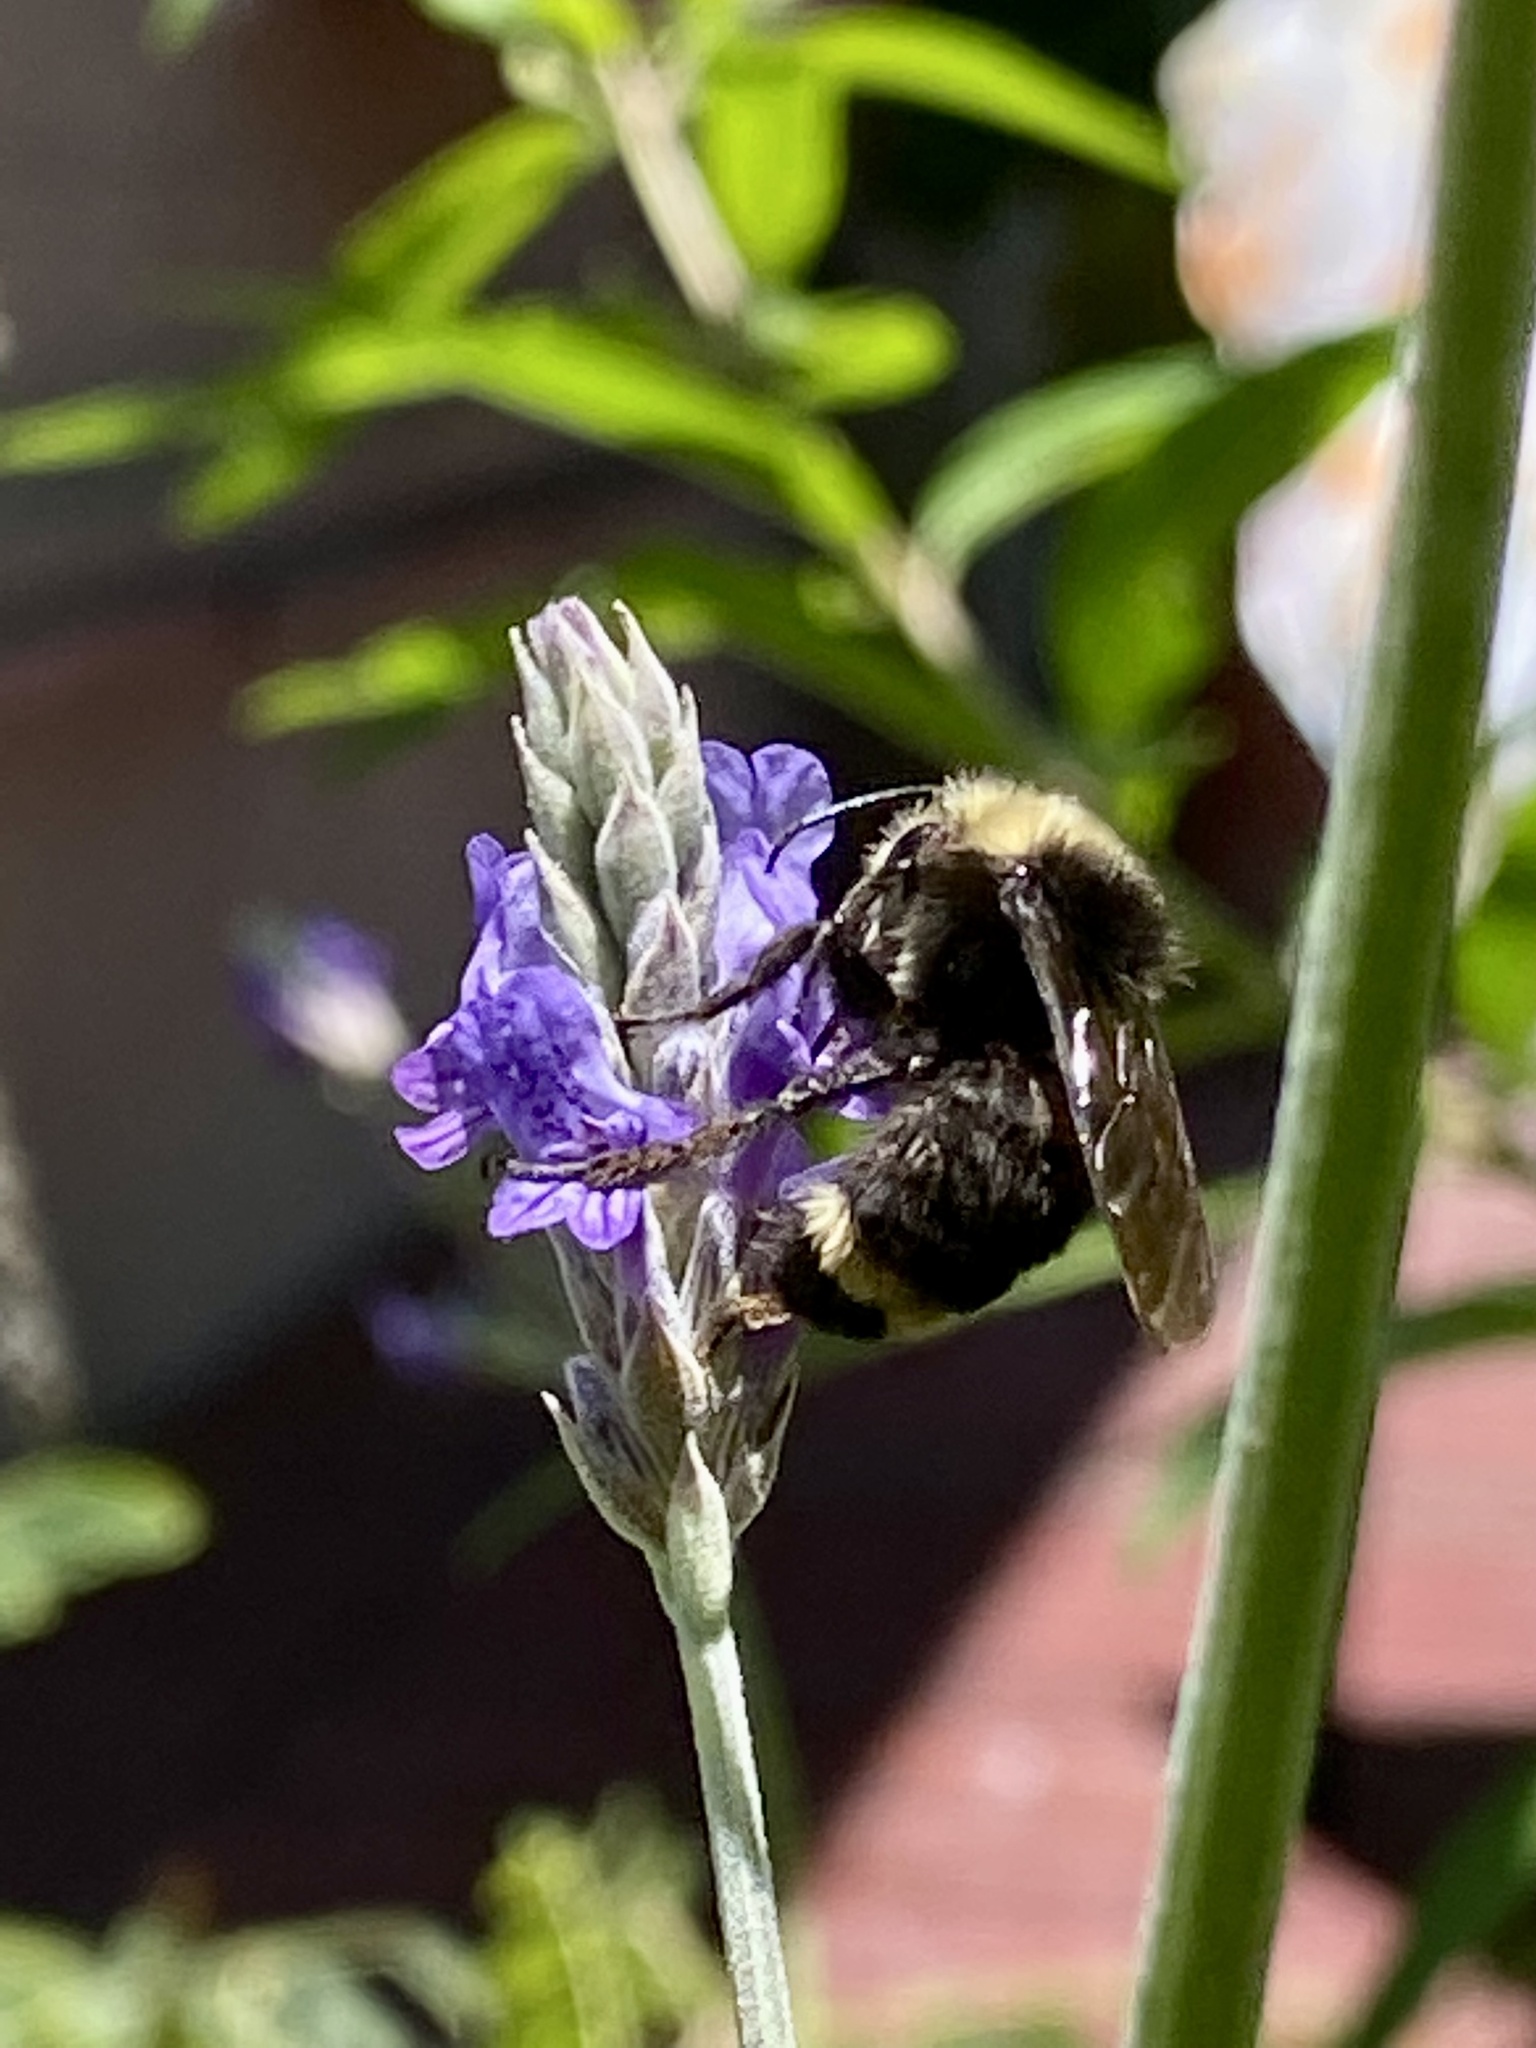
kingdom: Animalia
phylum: Arthropoda
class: Insecta
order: Hymenoptera
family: Apidae
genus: Bombus
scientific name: Bombus vosnesenskii
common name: Vosnesensky bumble bee
